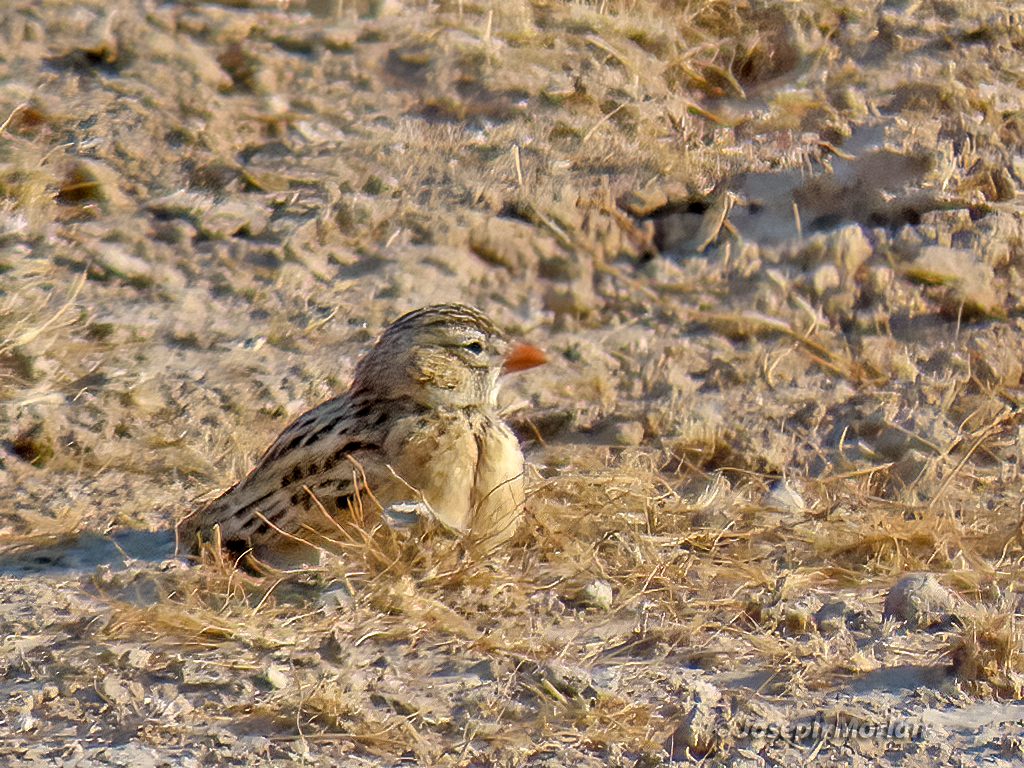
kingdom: Animalia
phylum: Chordata
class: Aves
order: Passeriformes
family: Alaudidae
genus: Spizocorys
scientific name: Spizocorys conirostris
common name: Pink-billed lark
